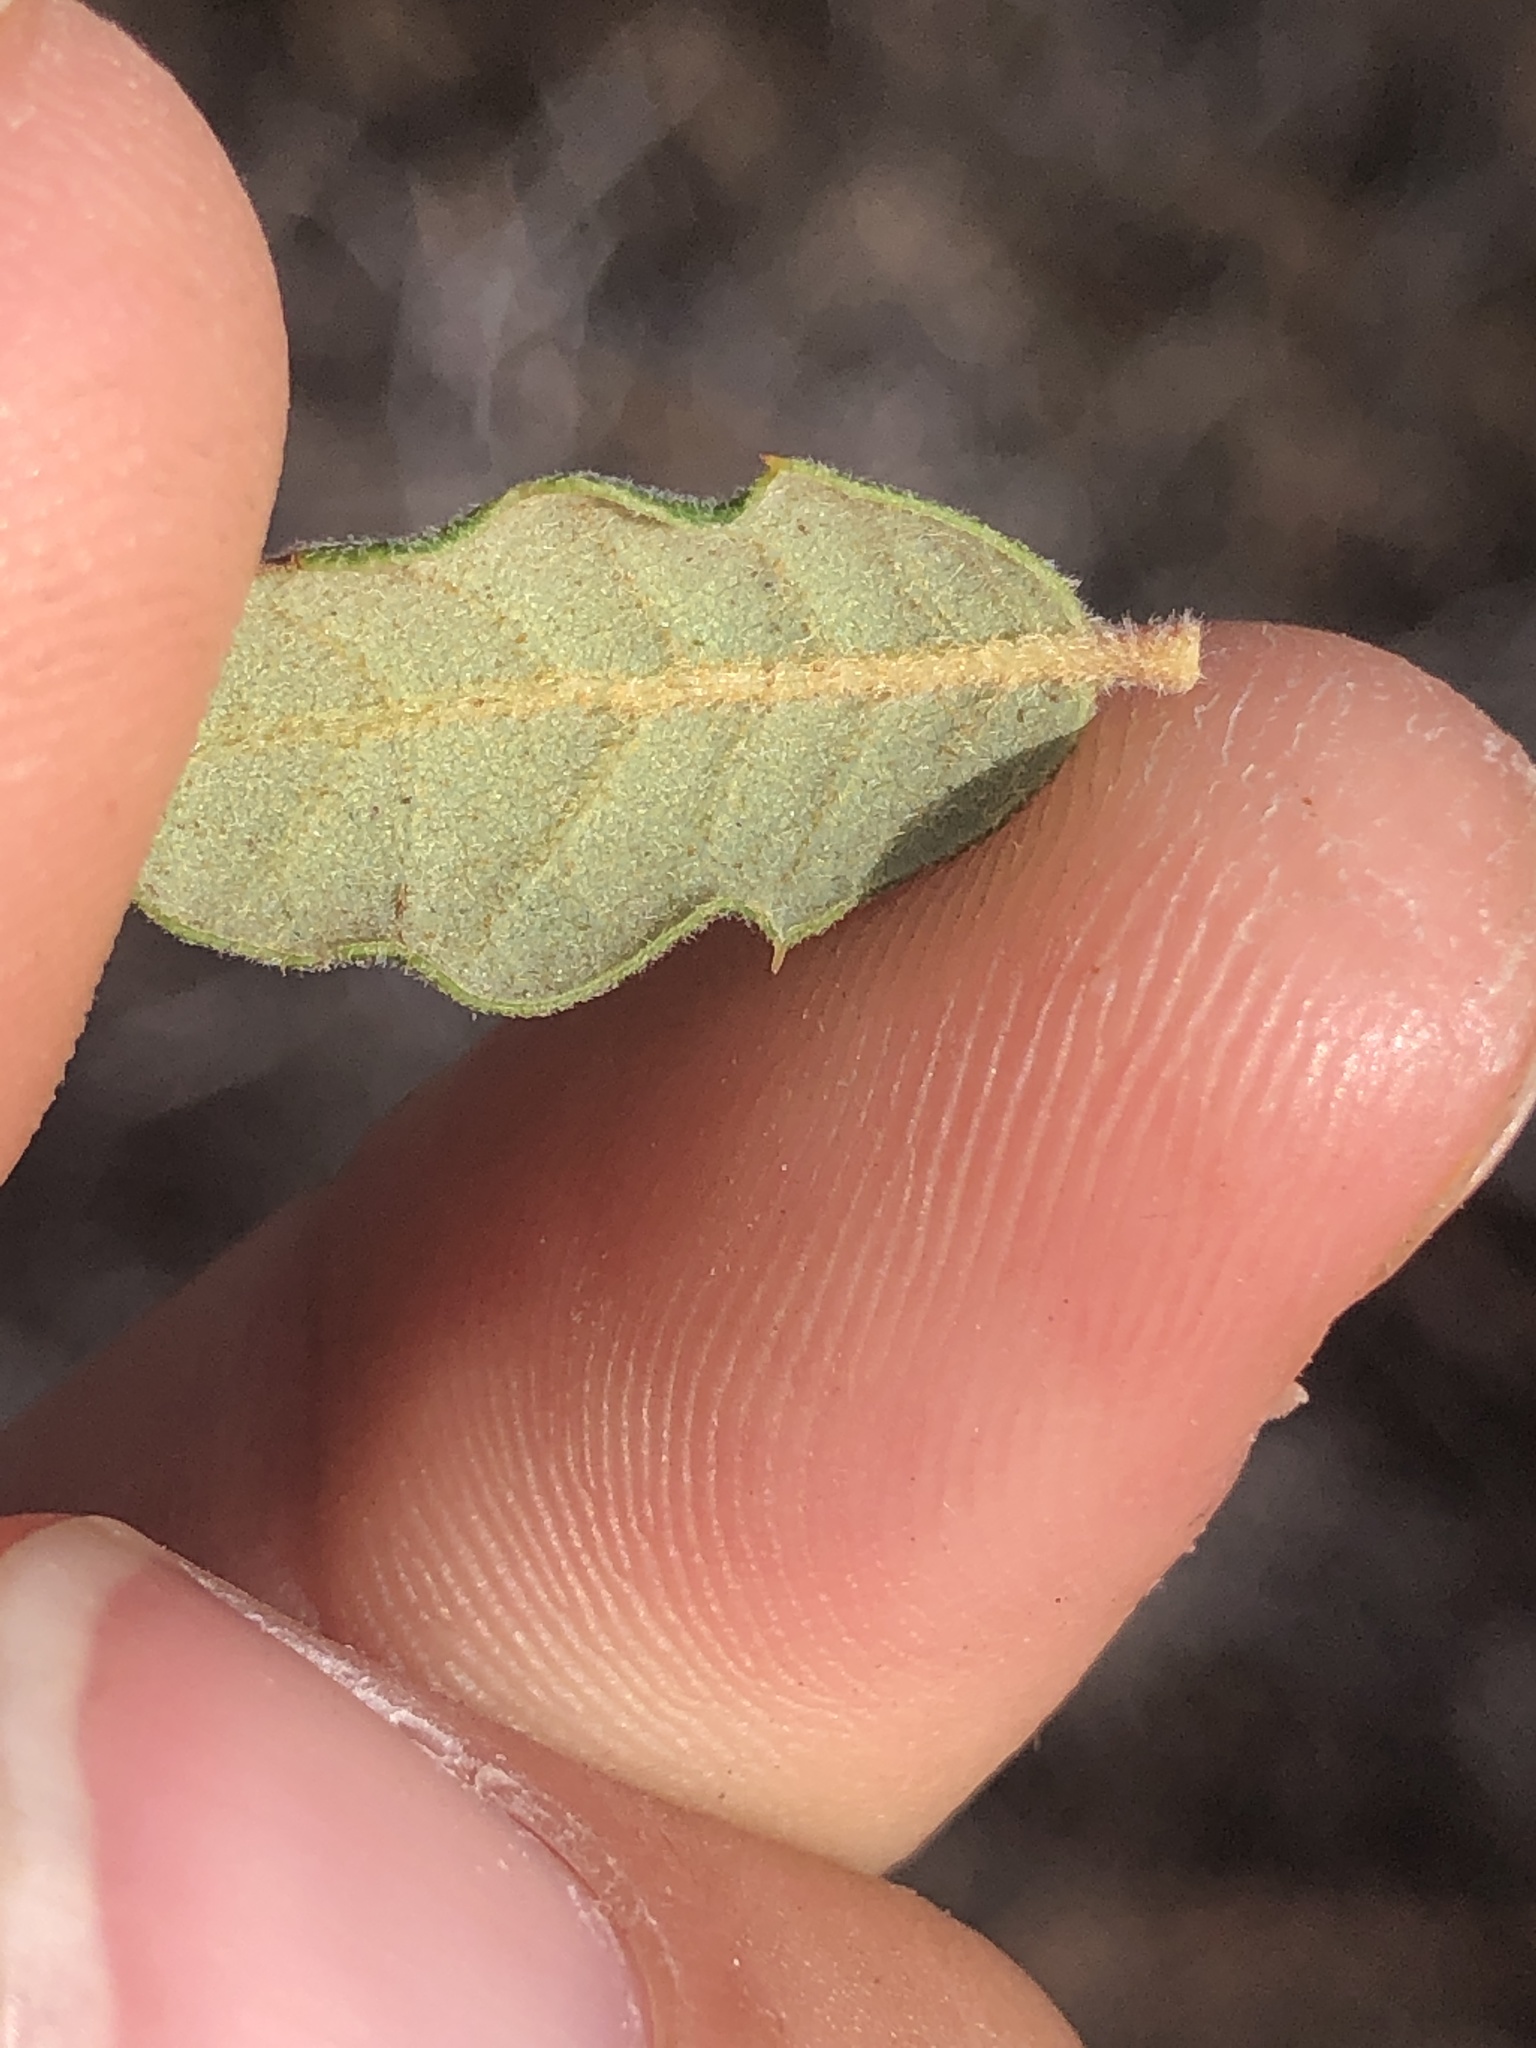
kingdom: Plantae
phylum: Tracheophyta
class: Magnoliopsida
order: Fagales
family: Fagaceae
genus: Quercus
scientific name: Quercus durata
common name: Leather oak
